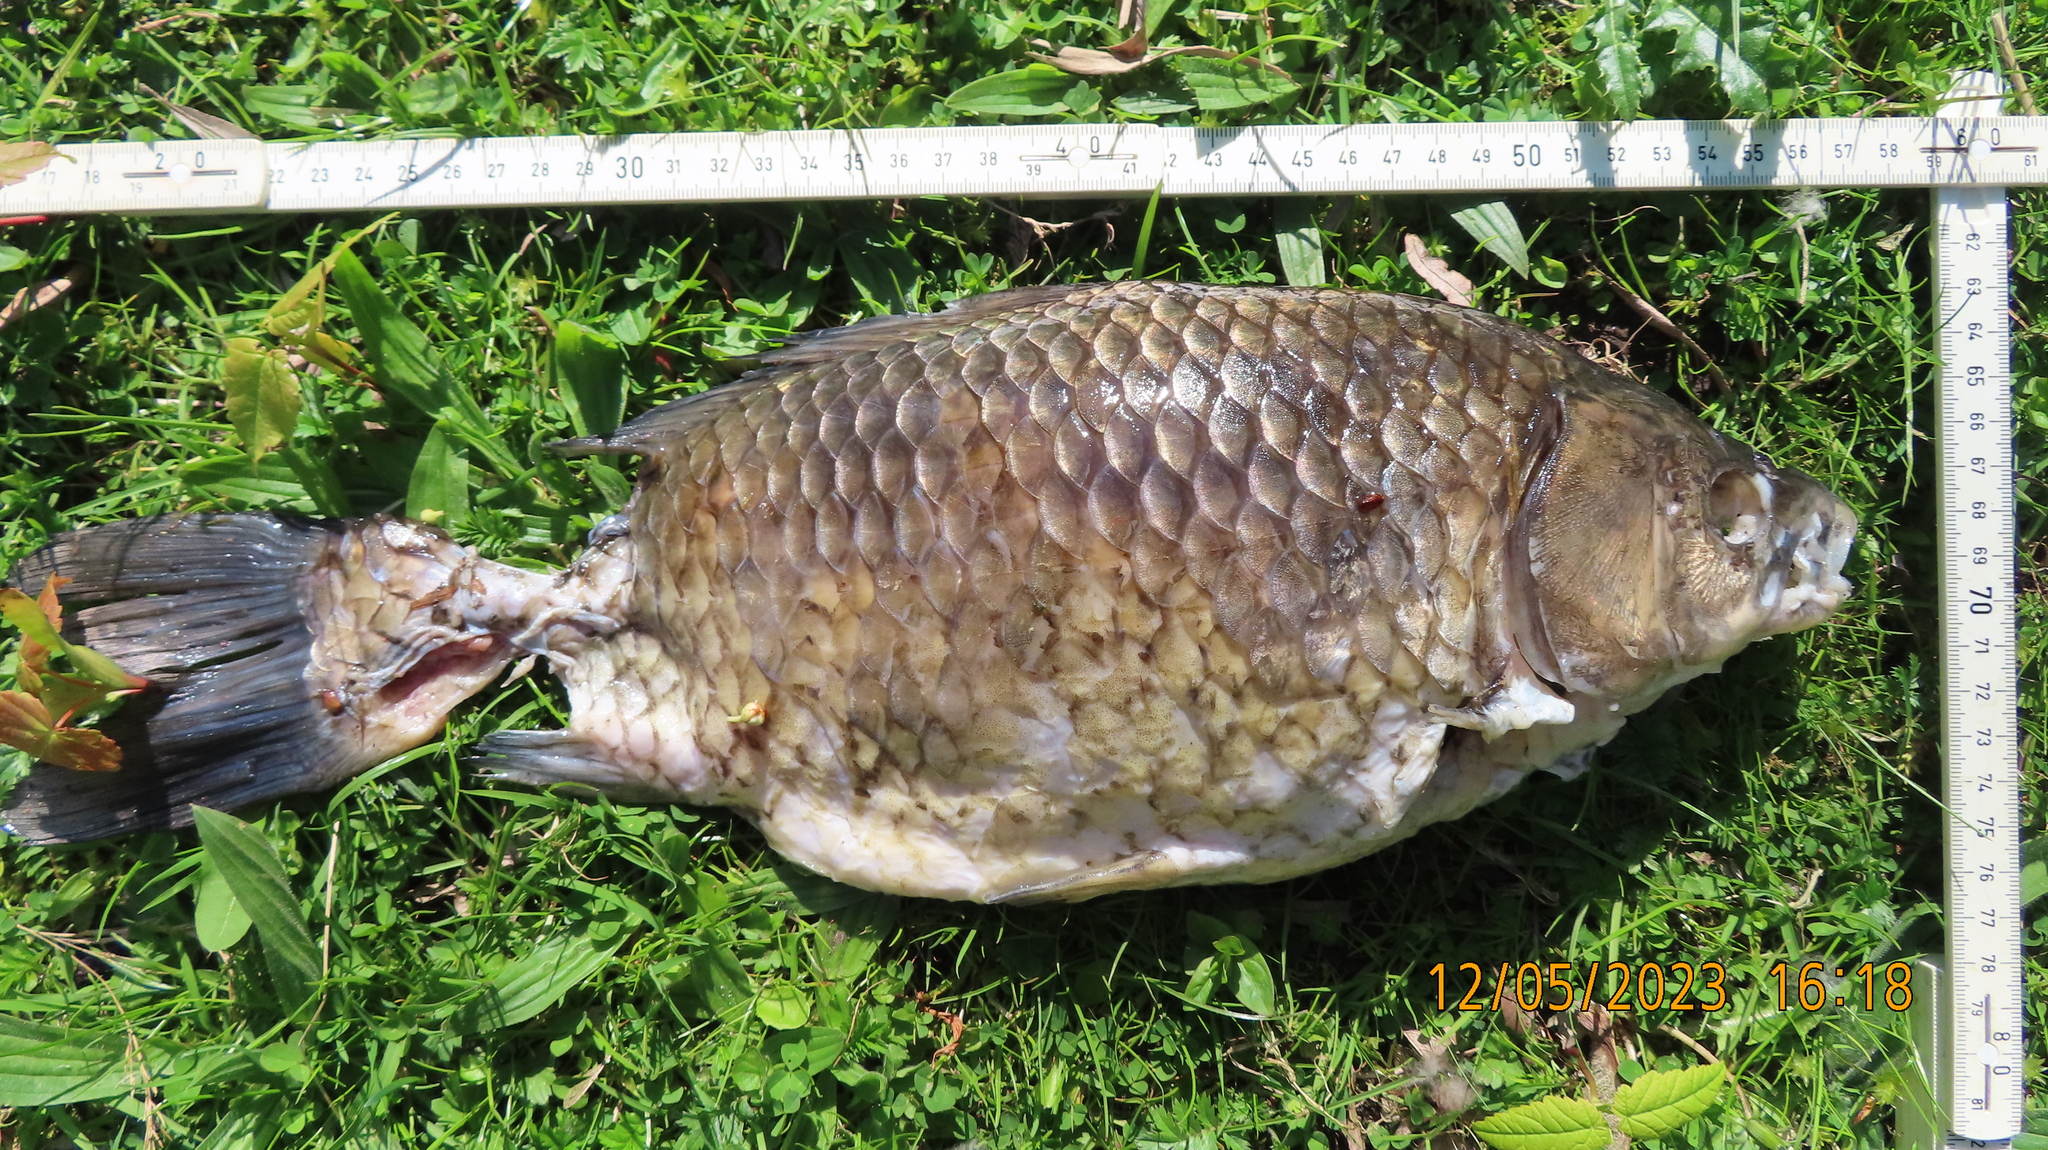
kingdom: Animalia
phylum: Chordata
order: Cypriniformes
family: Cyprinidae
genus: Carassius
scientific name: Carassius gibelio
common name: Prussian carp
